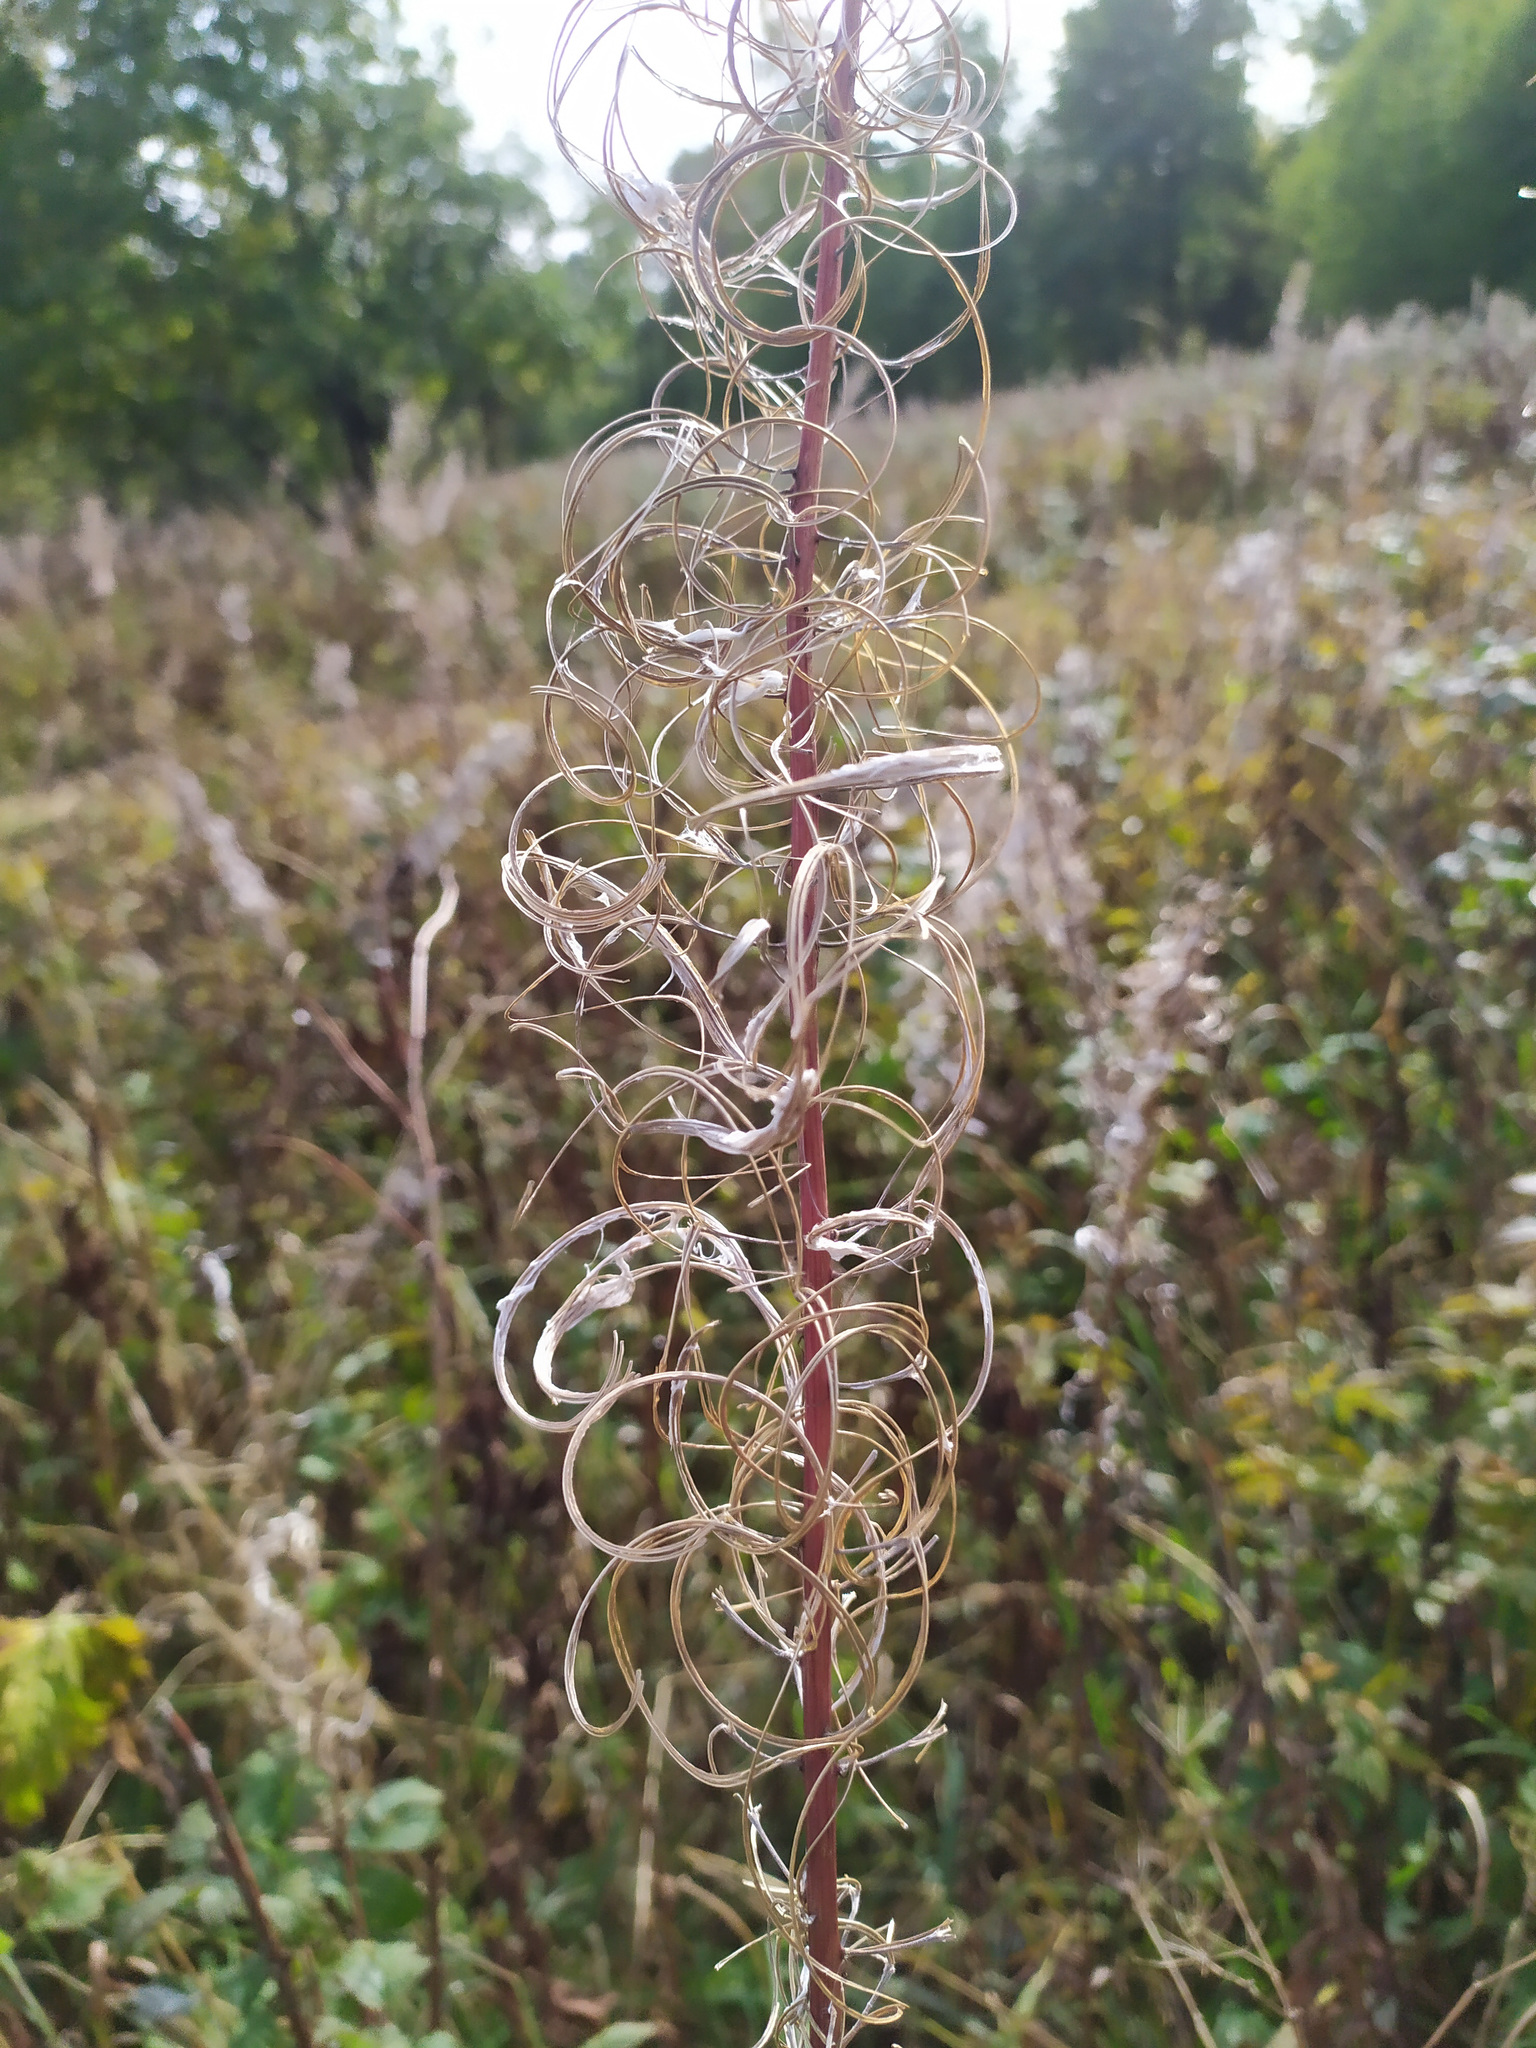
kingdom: Plantae
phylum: Tracheophyta
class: Magnoliopsida
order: Myrtales
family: Onagraceae
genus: Chamaenerion
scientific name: Chamaenerion angustifolium
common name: Fireweed
